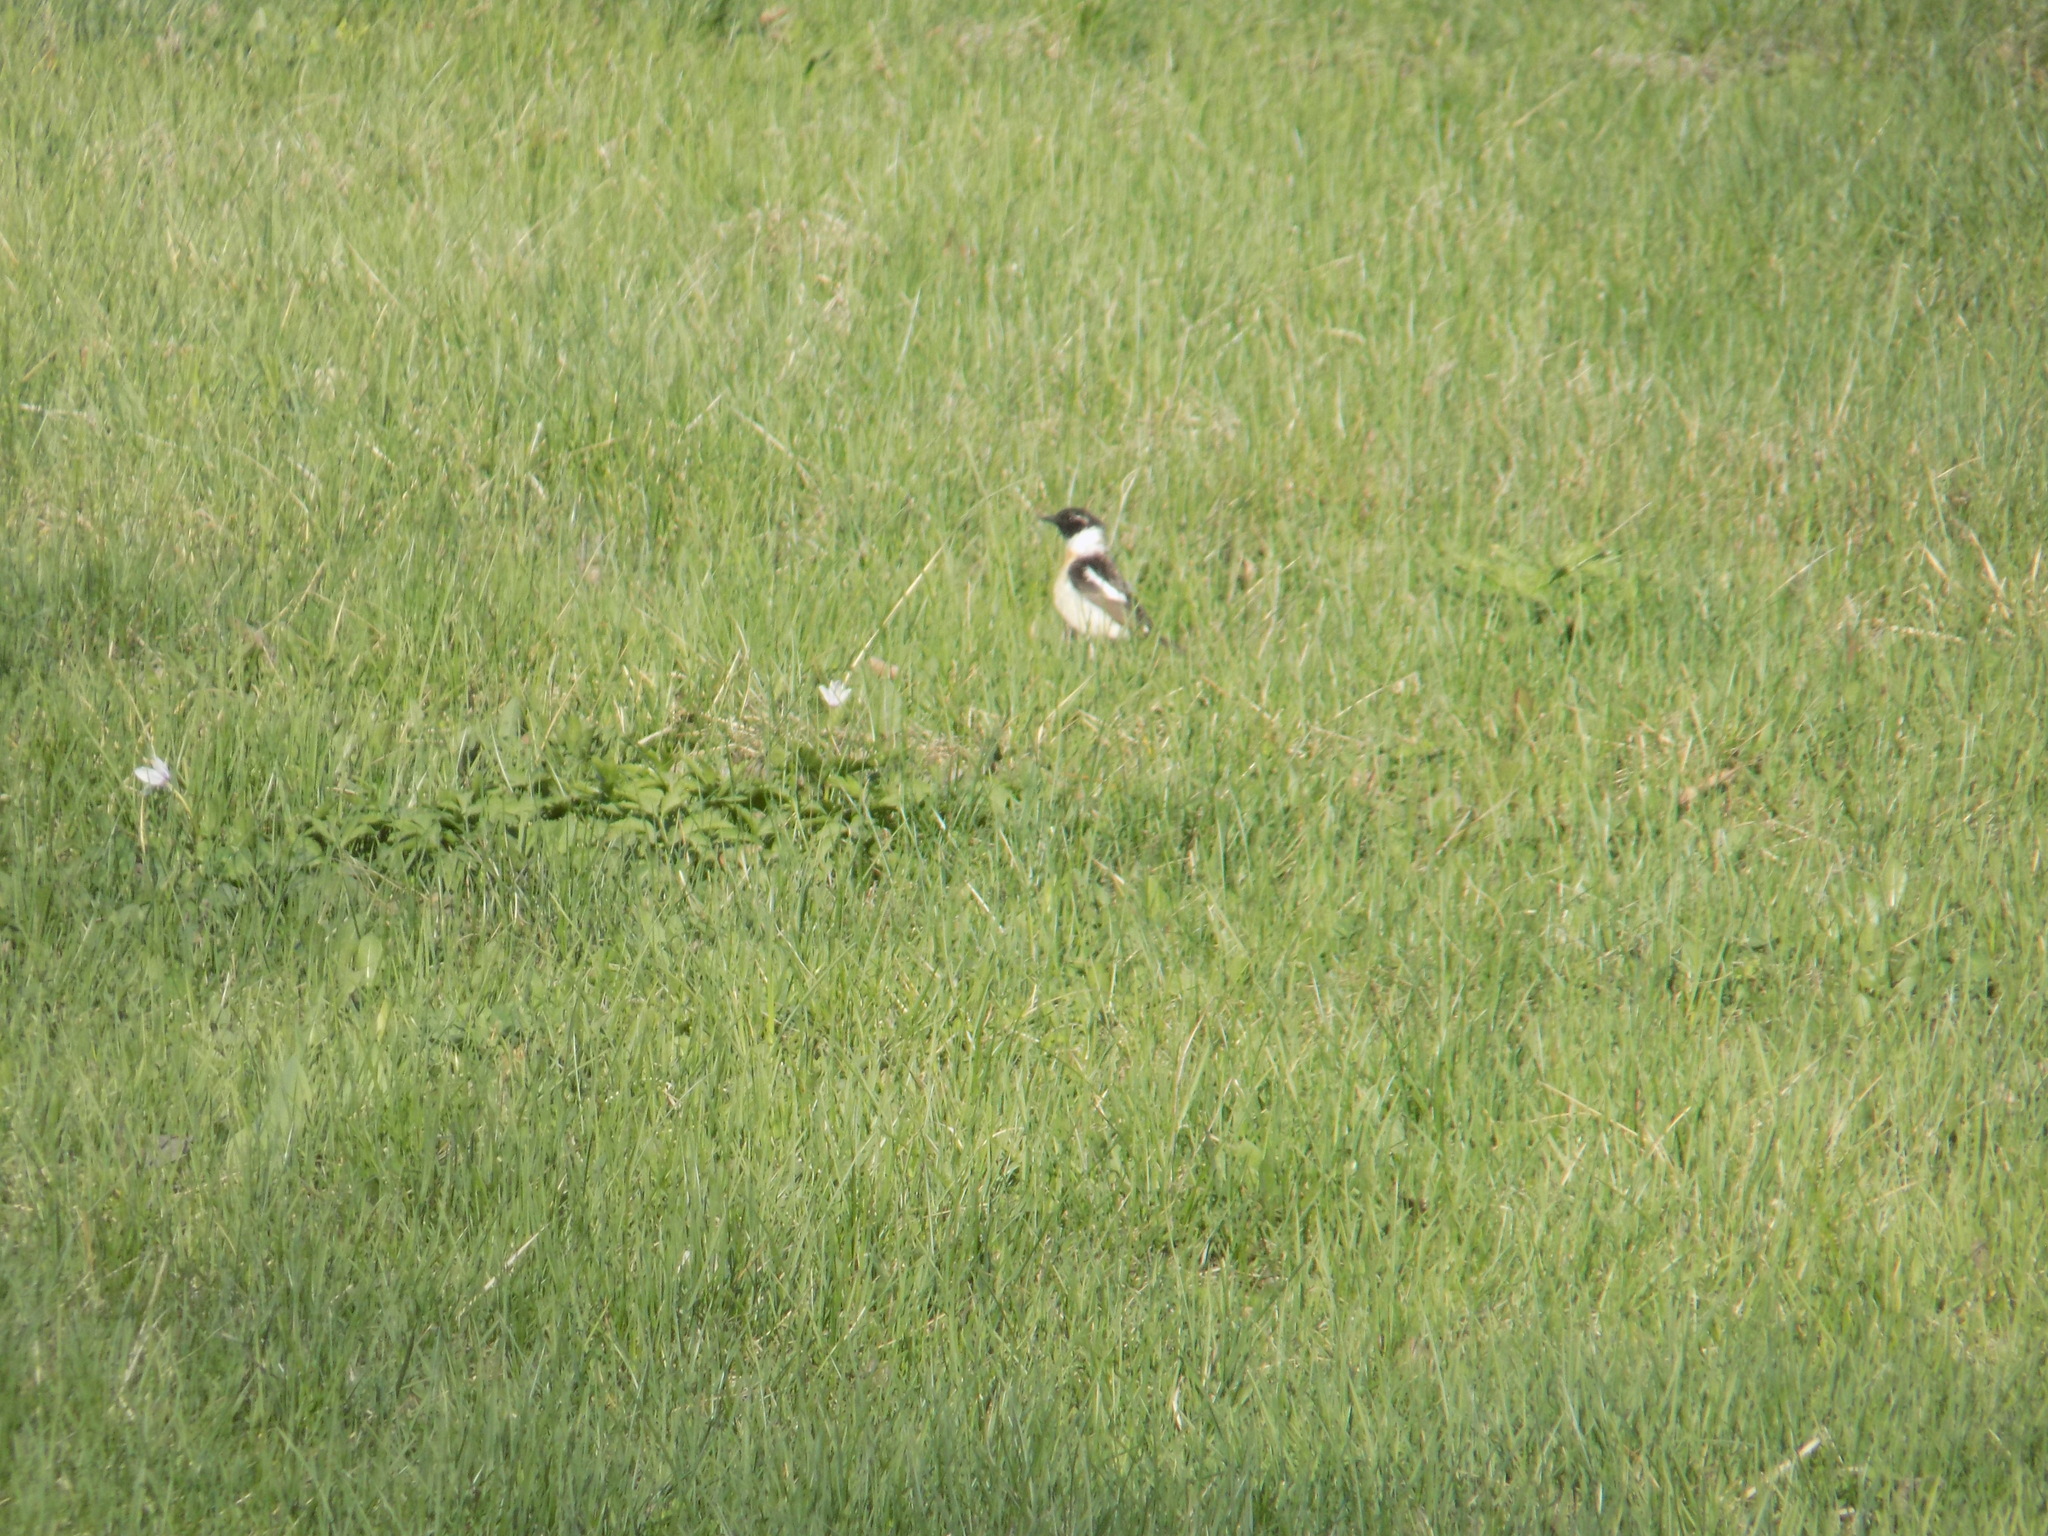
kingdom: Animalia
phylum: Chordata
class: Aves
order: Passeriformes
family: Muscicapidae
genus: Saxicola
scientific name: Saxicola maurus
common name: Siberian stonechat
